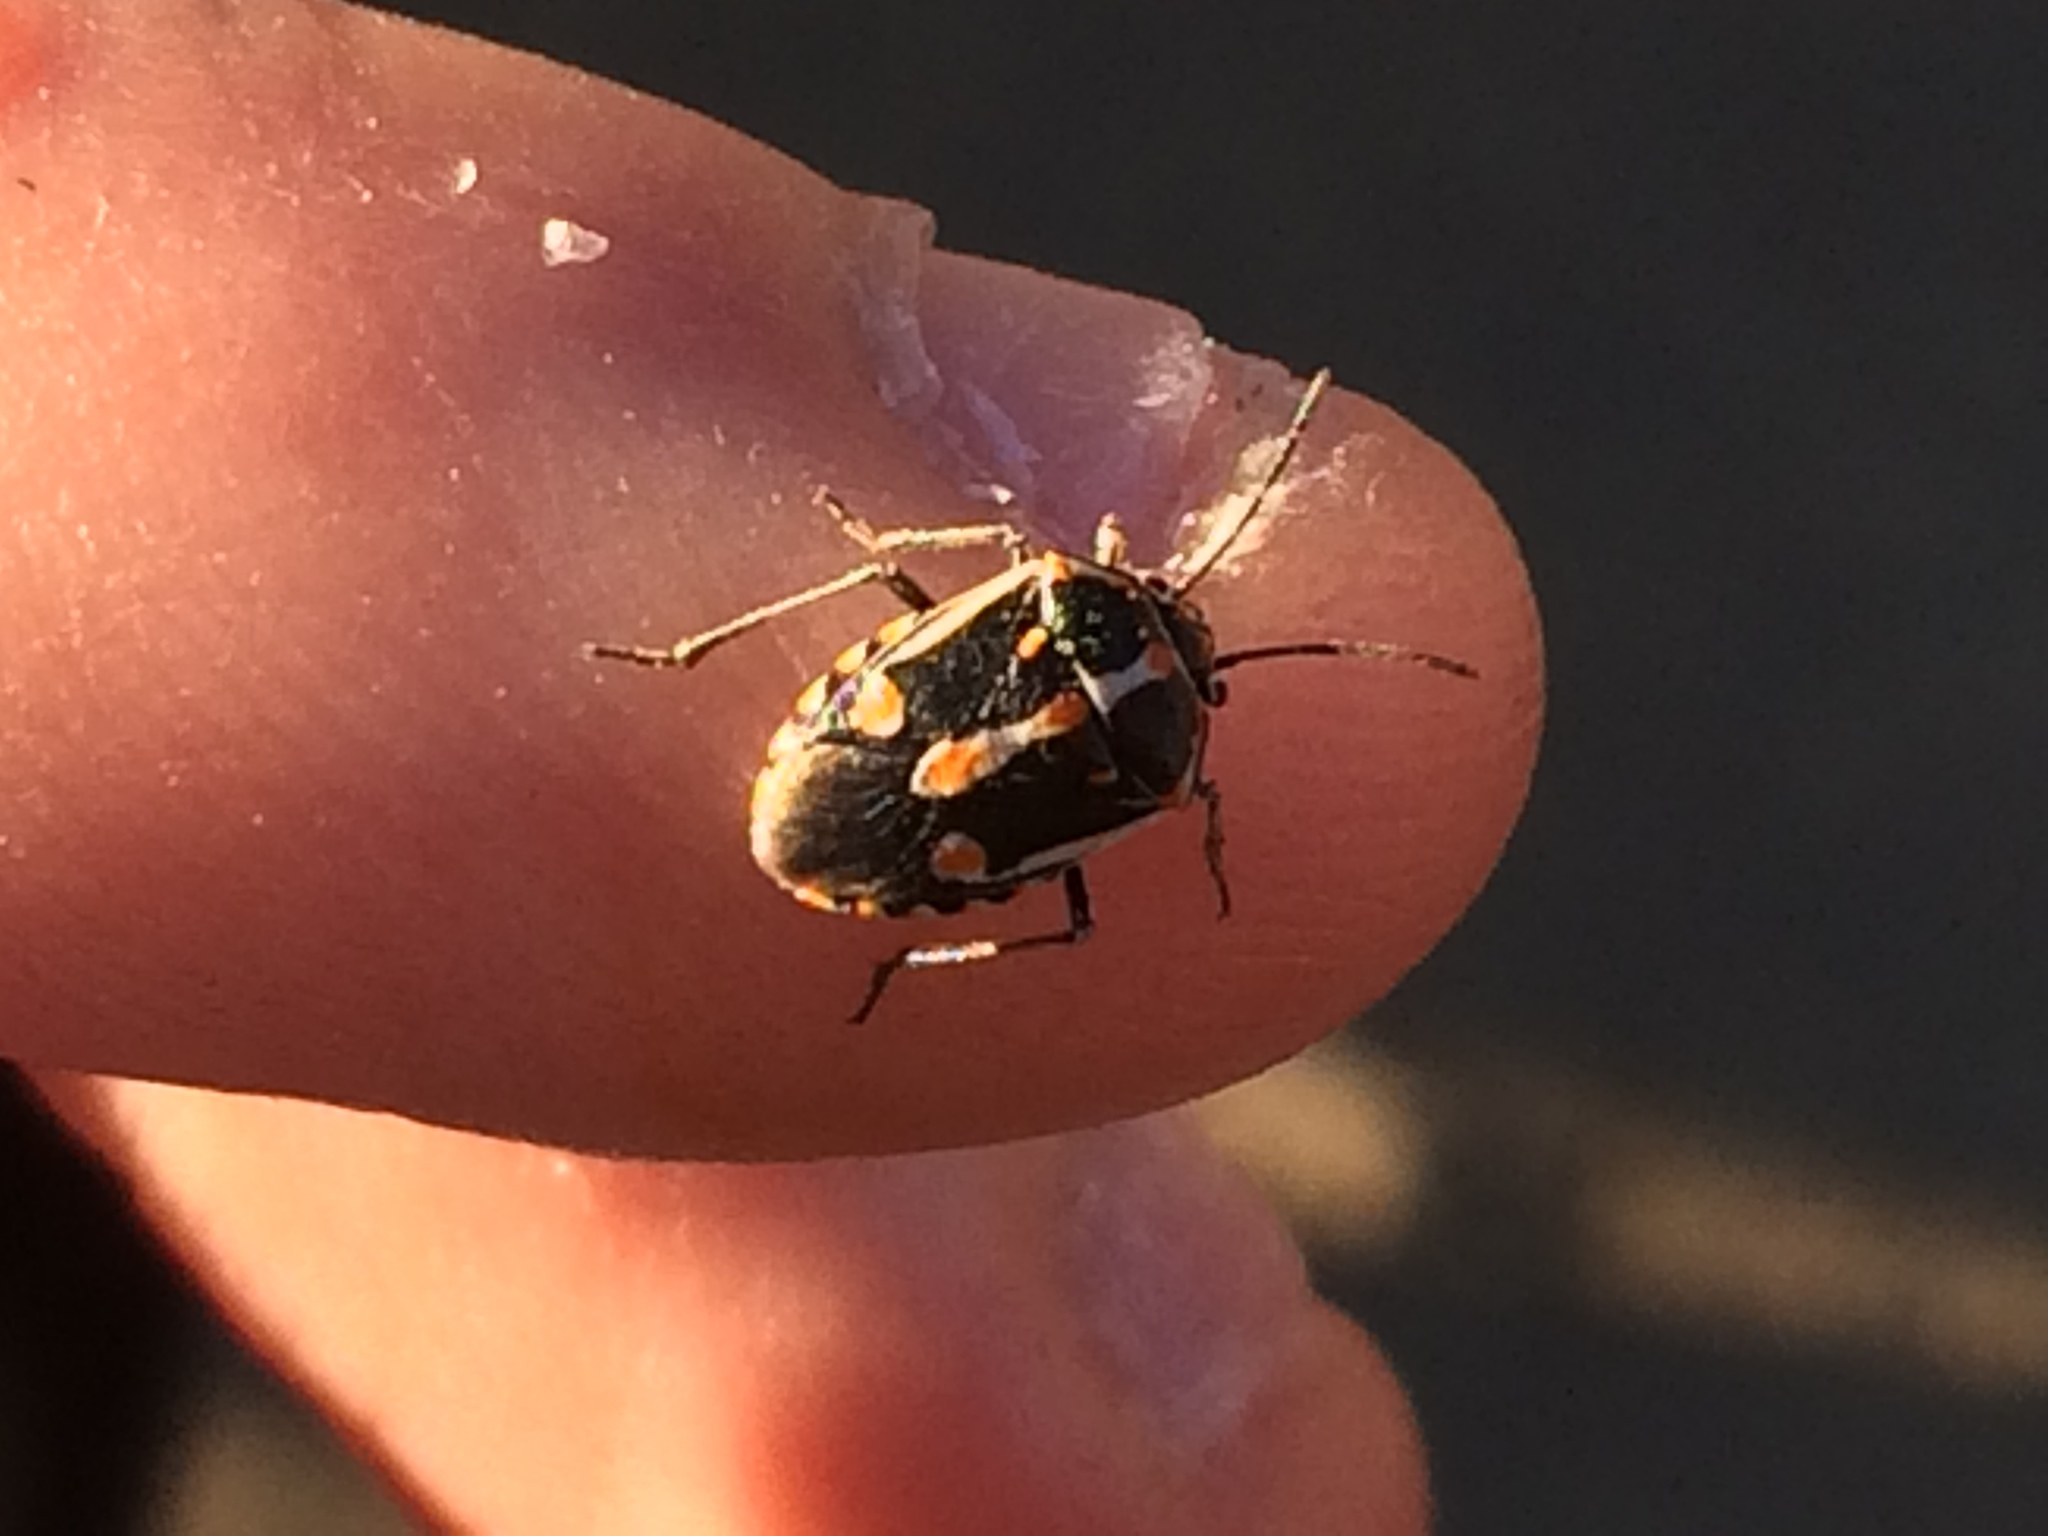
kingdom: Animalia
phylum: Arthropoda
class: Insecta
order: Hemiptera
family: Pentatomidae
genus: Bagrada
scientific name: Bagrada hilaris
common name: Bagrada bug
